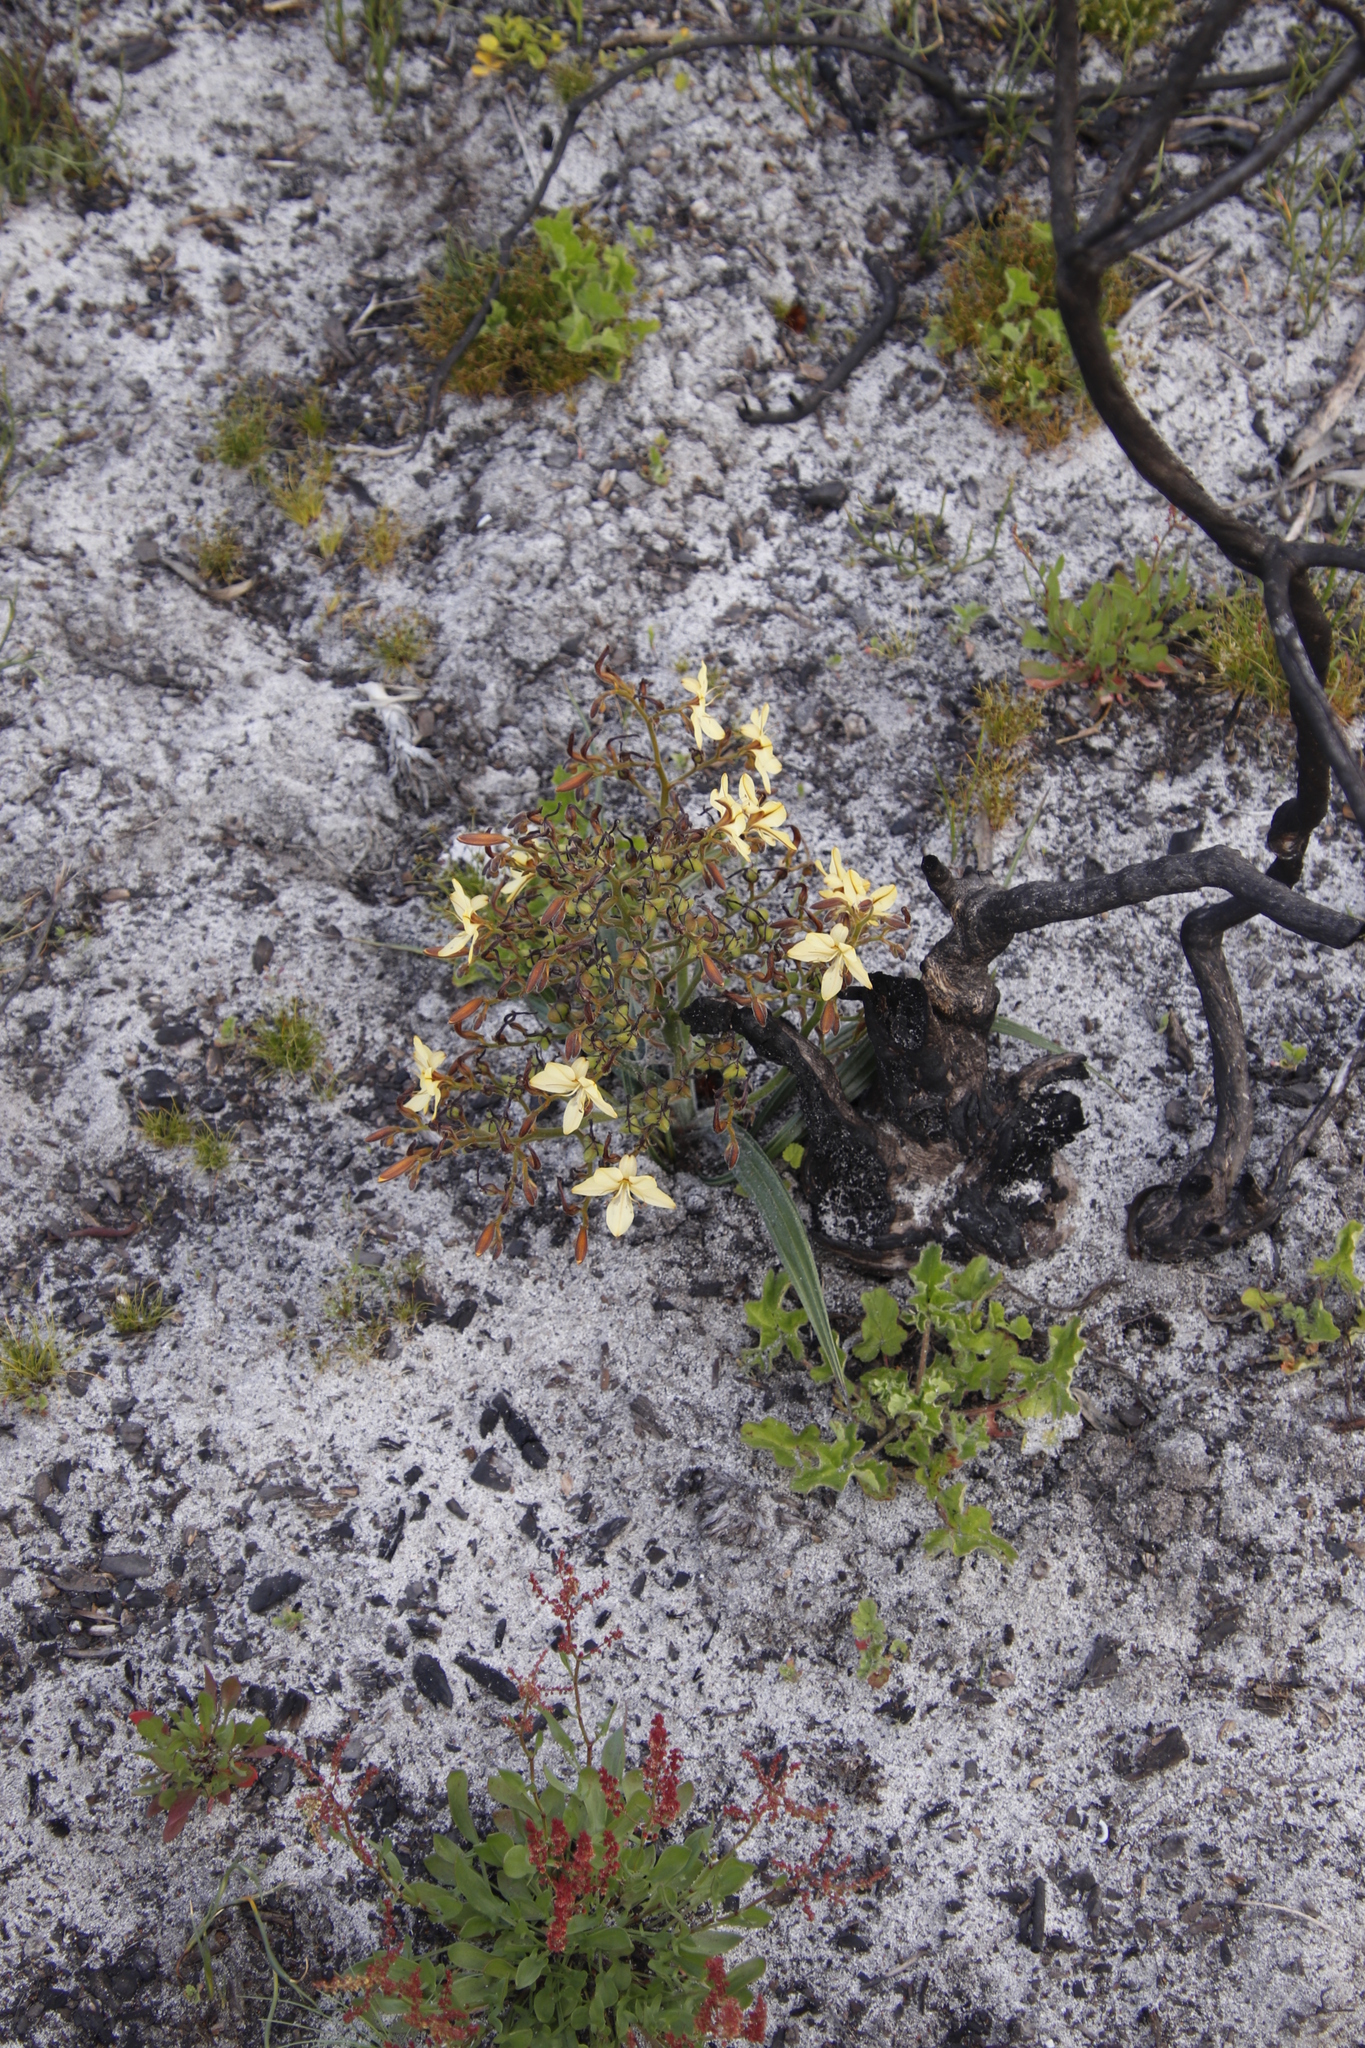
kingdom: Plantae
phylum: Tracheophyta
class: Liliopsida
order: Commelinales
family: Haemodoraceae
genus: Wachendorfia
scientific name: Wachendorfia paniculata
